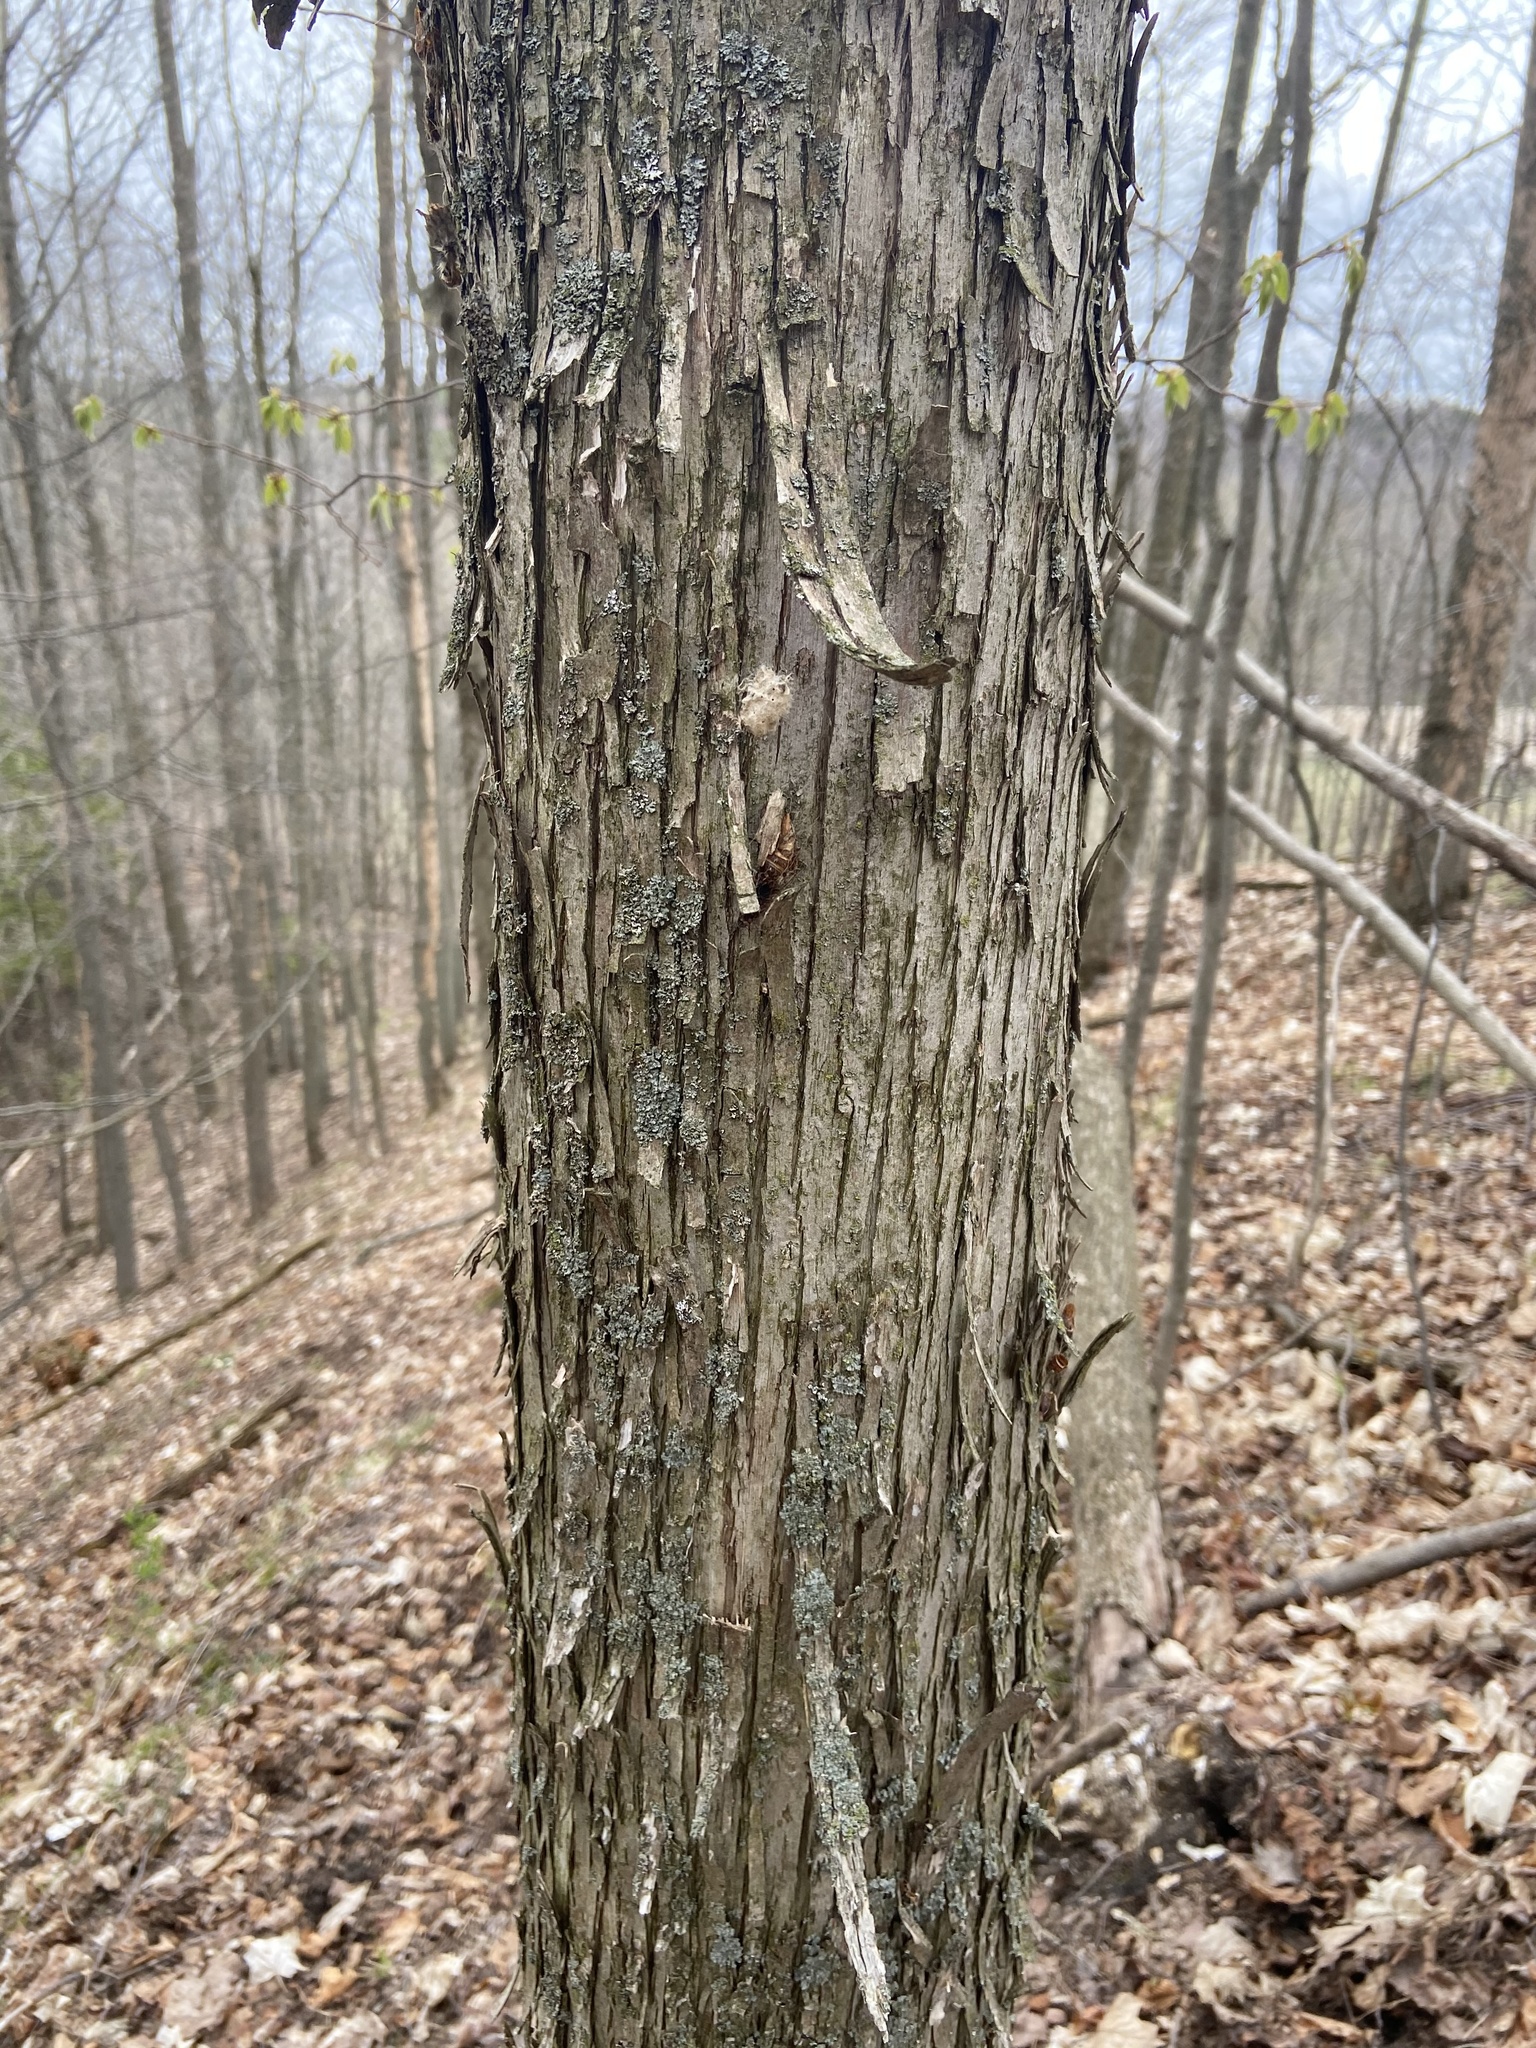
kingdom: Plantae
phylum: Tracheophyta
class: Magnoliopsida
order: Fagales
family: Betulaceae
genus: Ostrya
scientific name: Ostrya virginiana
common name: Ironwood
